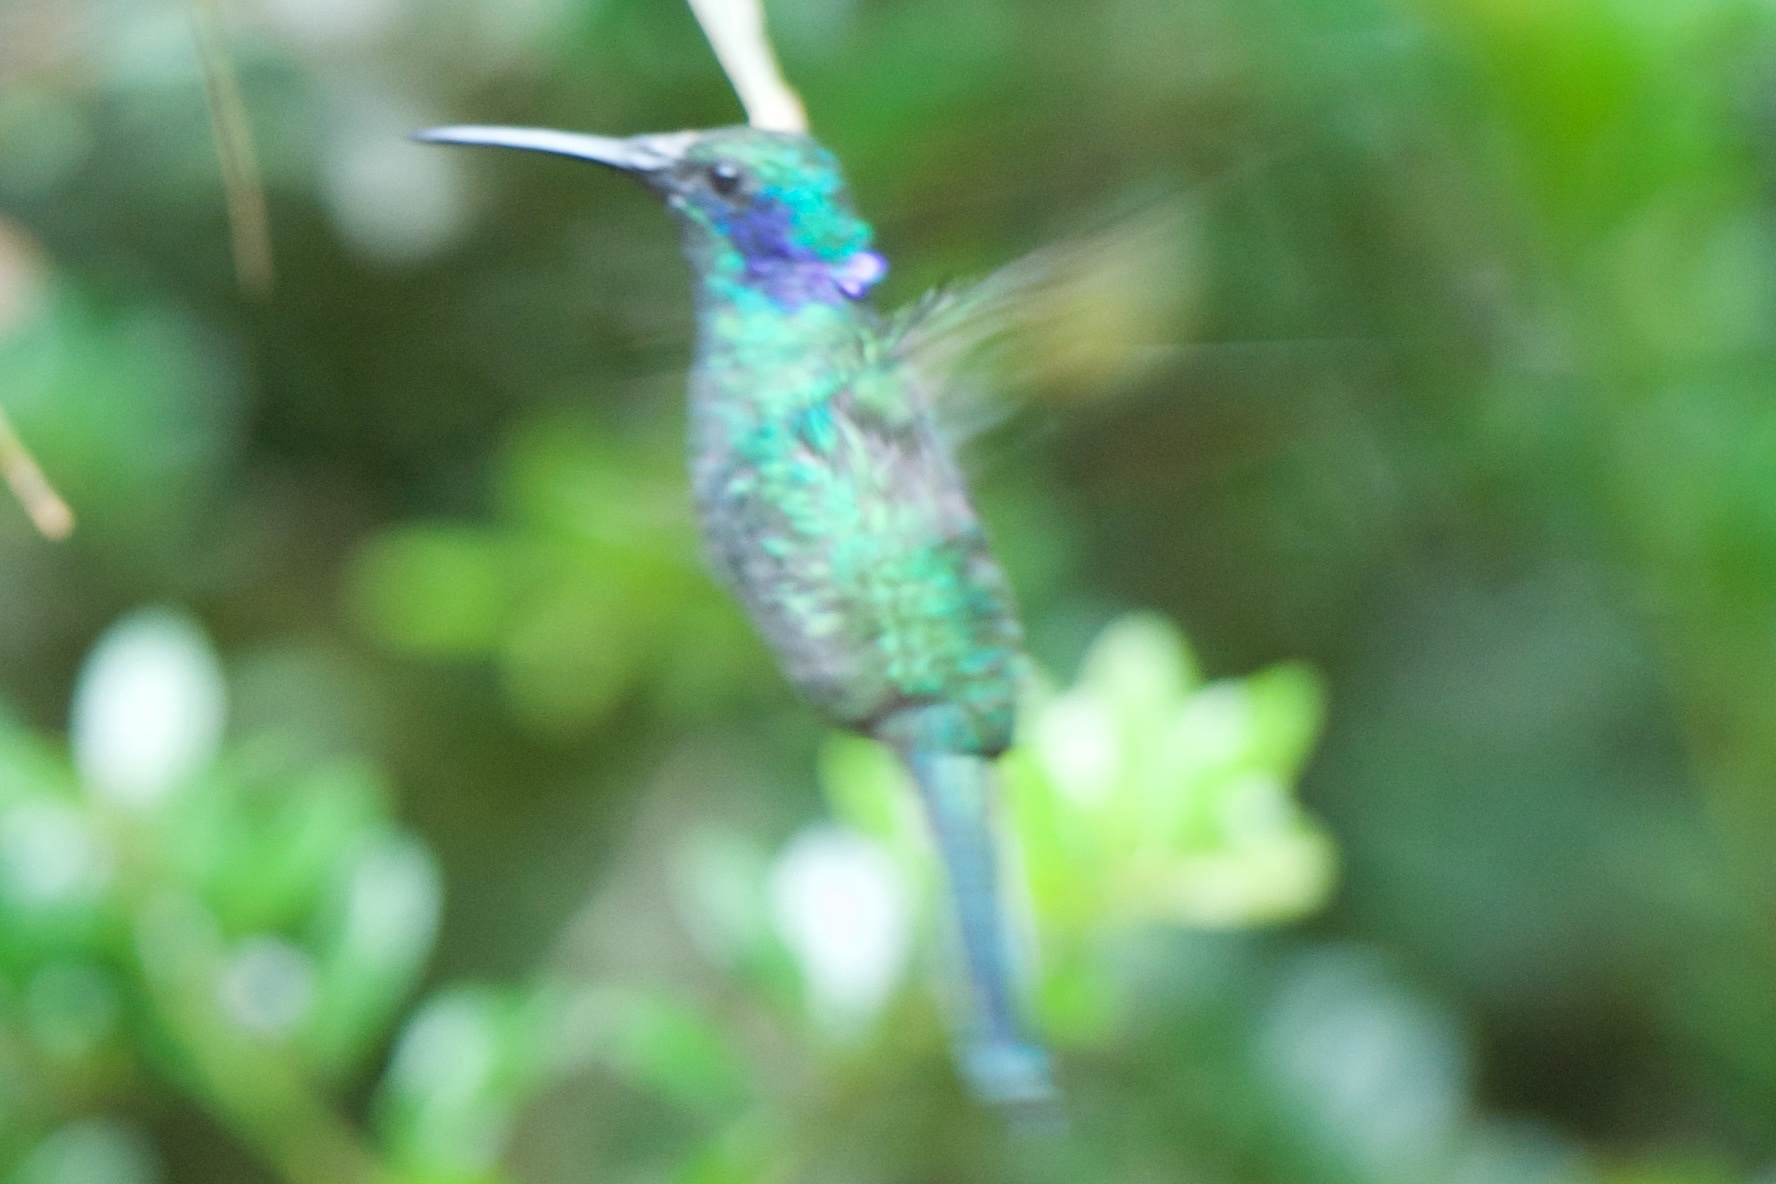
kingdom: Animalia
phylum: Chordata
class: Aves
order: Apodiformes
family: Trochilidae
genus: Colibri
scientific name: Colibri cyanotus
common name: Lesser violetear
